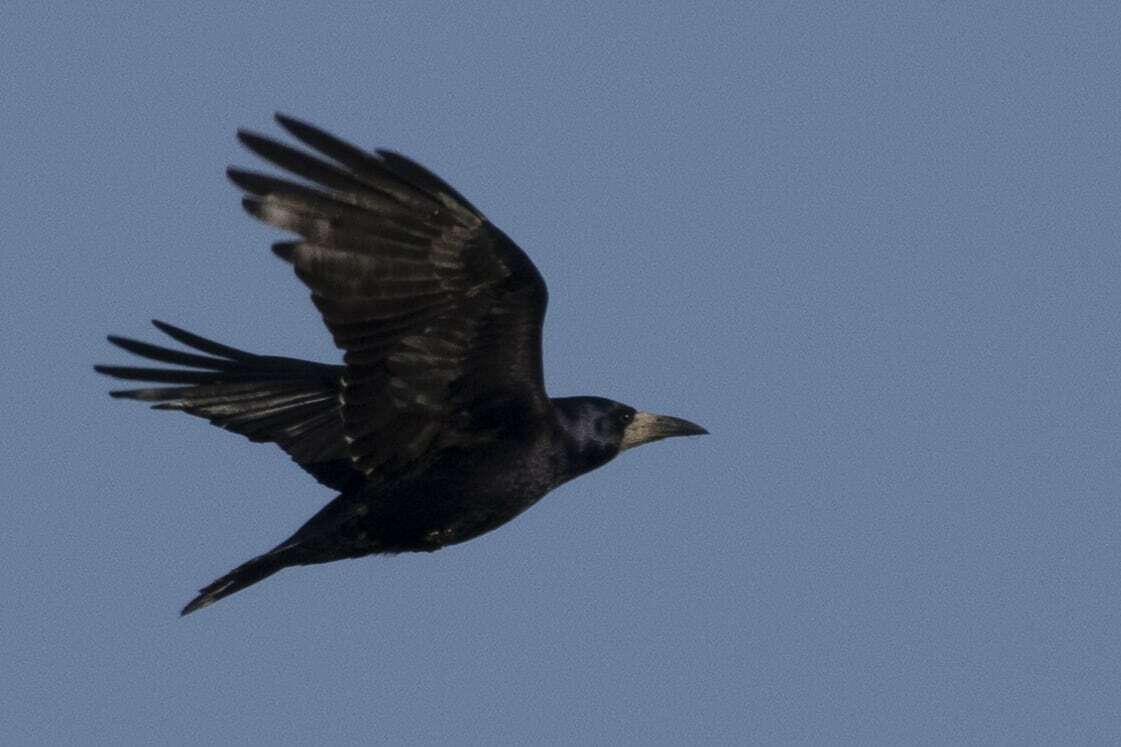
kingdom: Animalia
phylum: Chordata
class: Aves
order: Passeriformes
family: Corvidae
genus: Corvus
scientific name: Corvus frugilegus
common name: Rook
